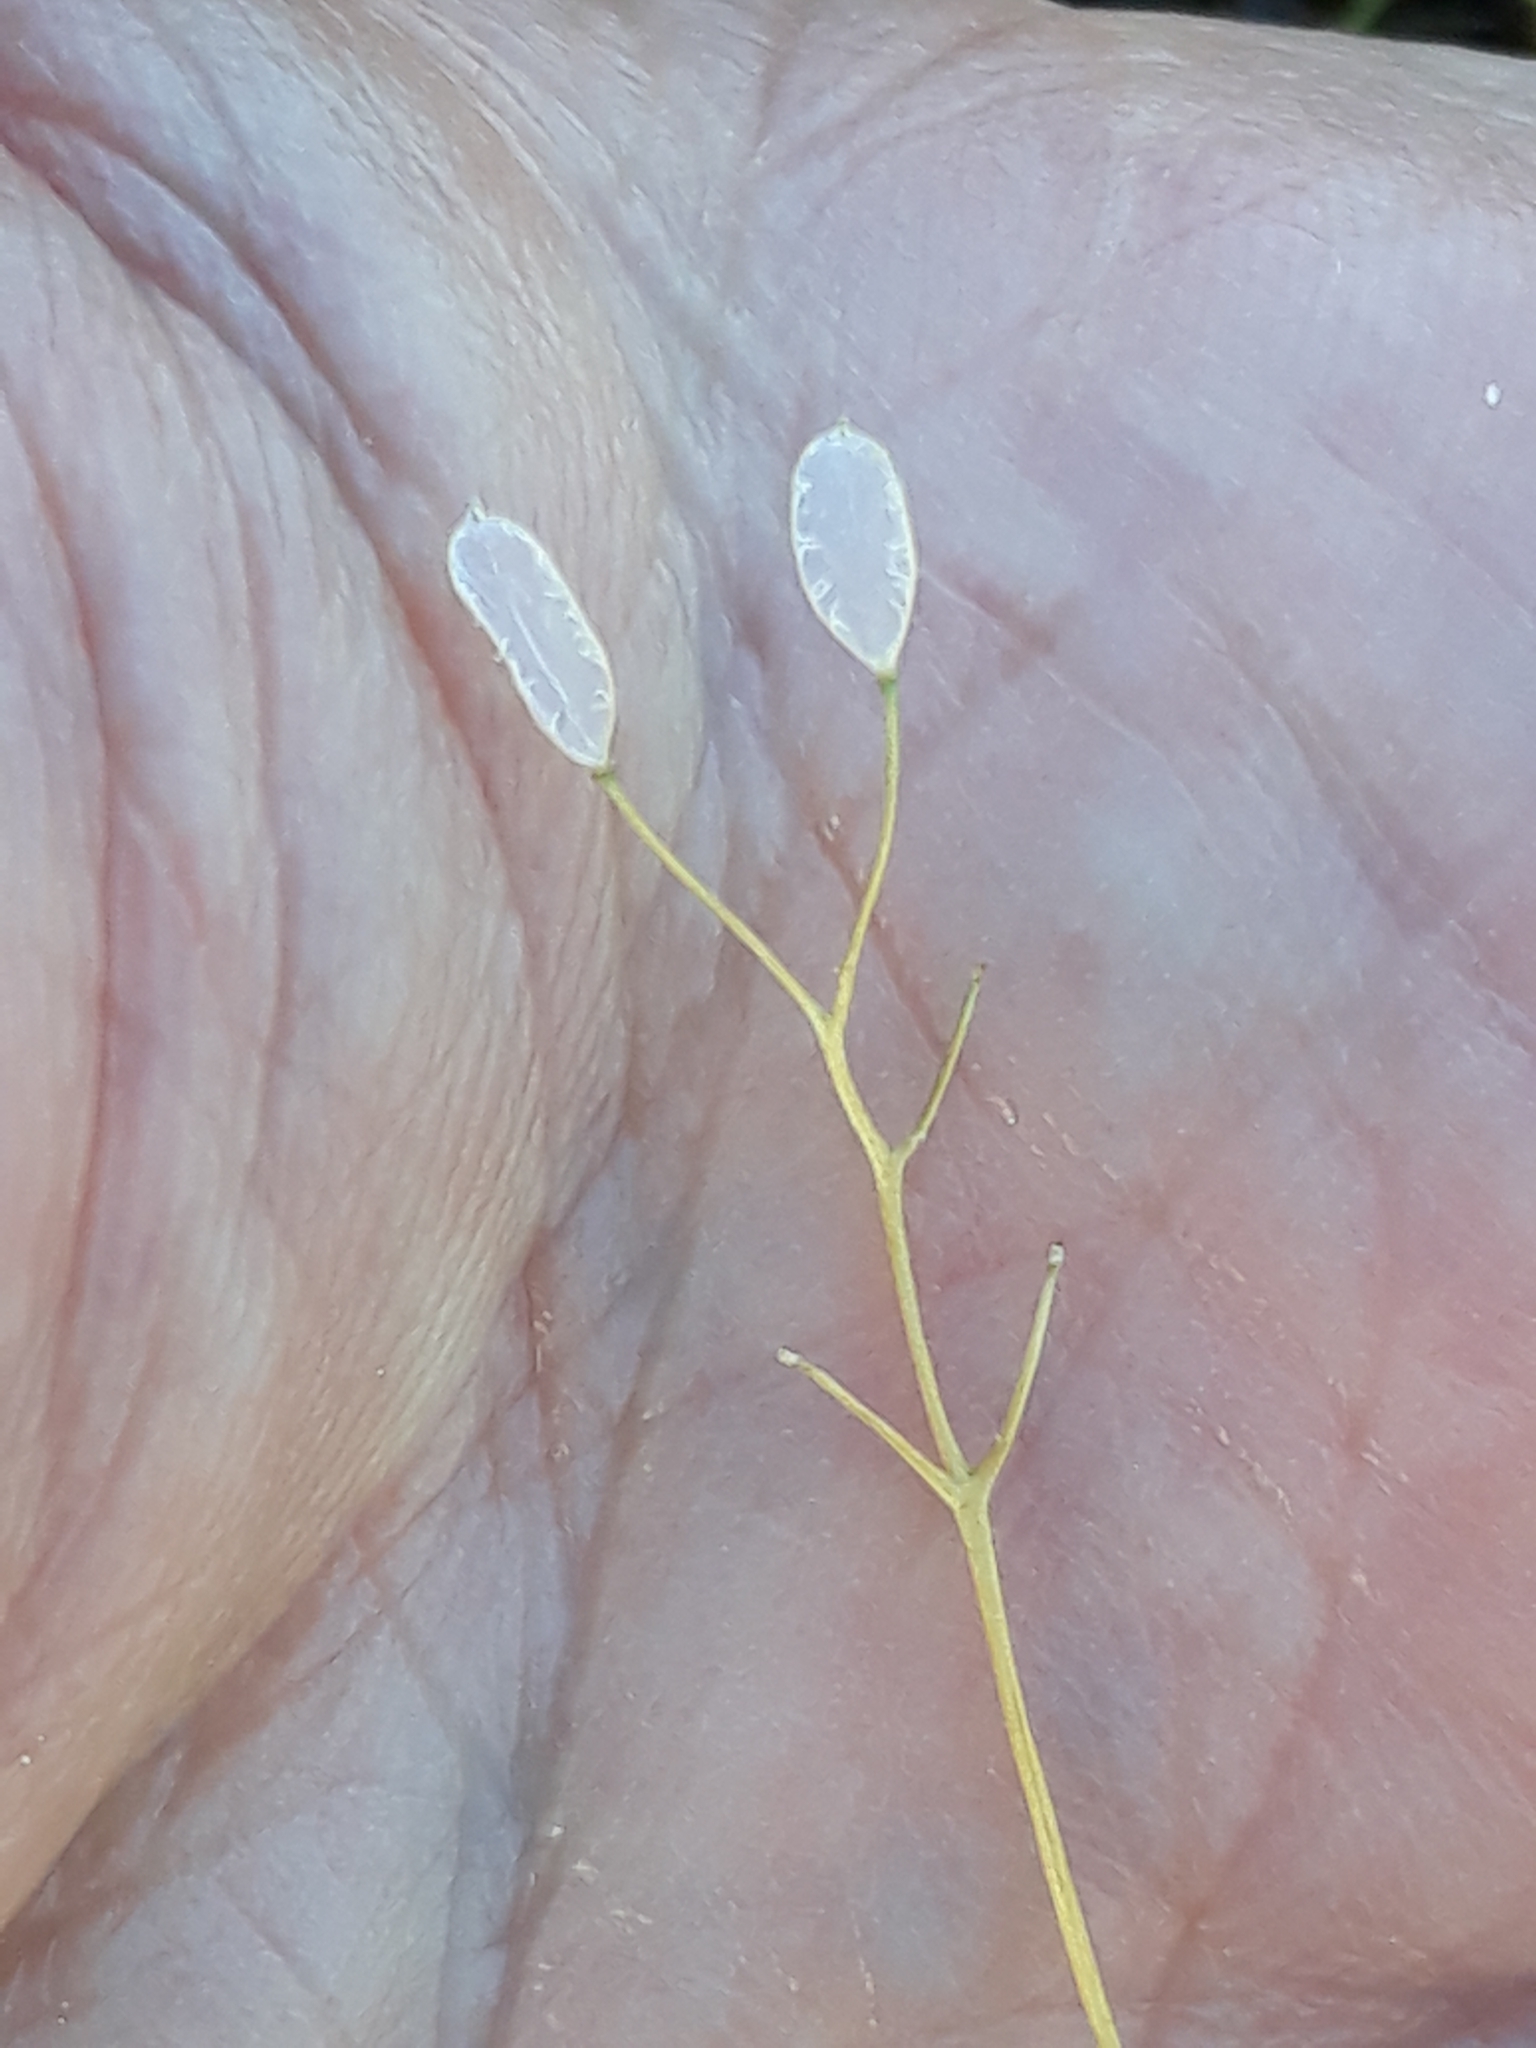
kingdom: Plantae
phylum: Tracheophyta
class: Magnoliopsida
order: Brassicales
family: Brassicaceae
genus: Draba
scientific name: Draba verna
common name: Spring draba
